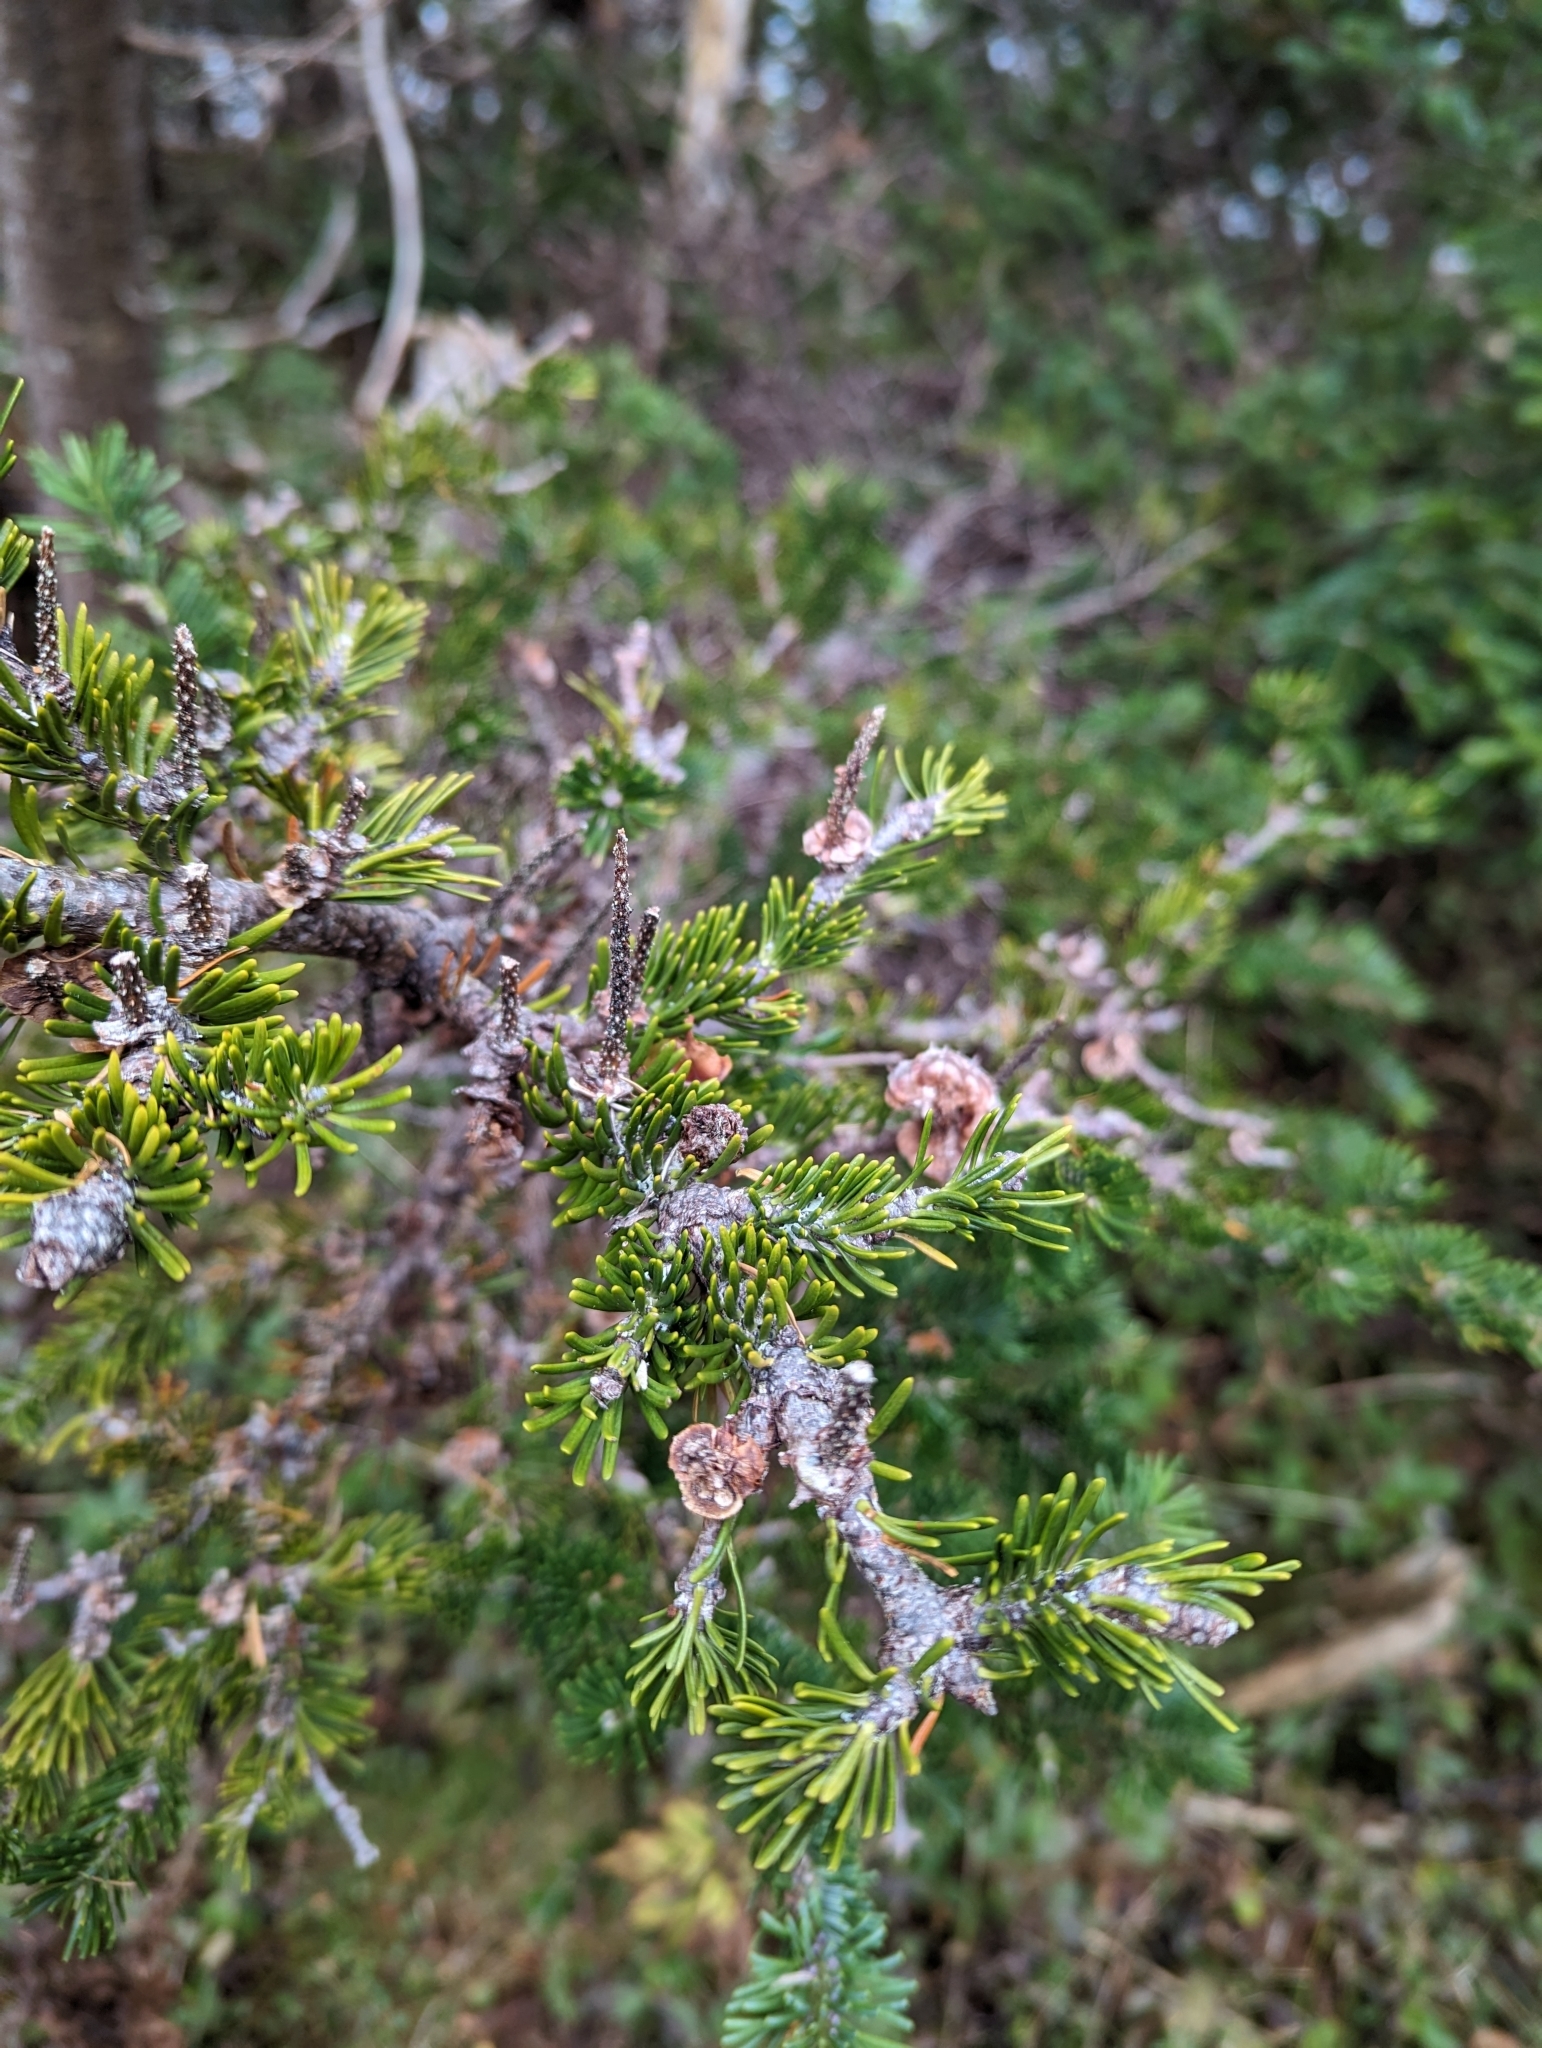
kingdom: Plantae
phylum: Tracheophyta
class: Pinopsida
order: Pinales
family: Pinaceae
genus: Abies
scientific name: Abies balsamea
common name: Balsam fir
